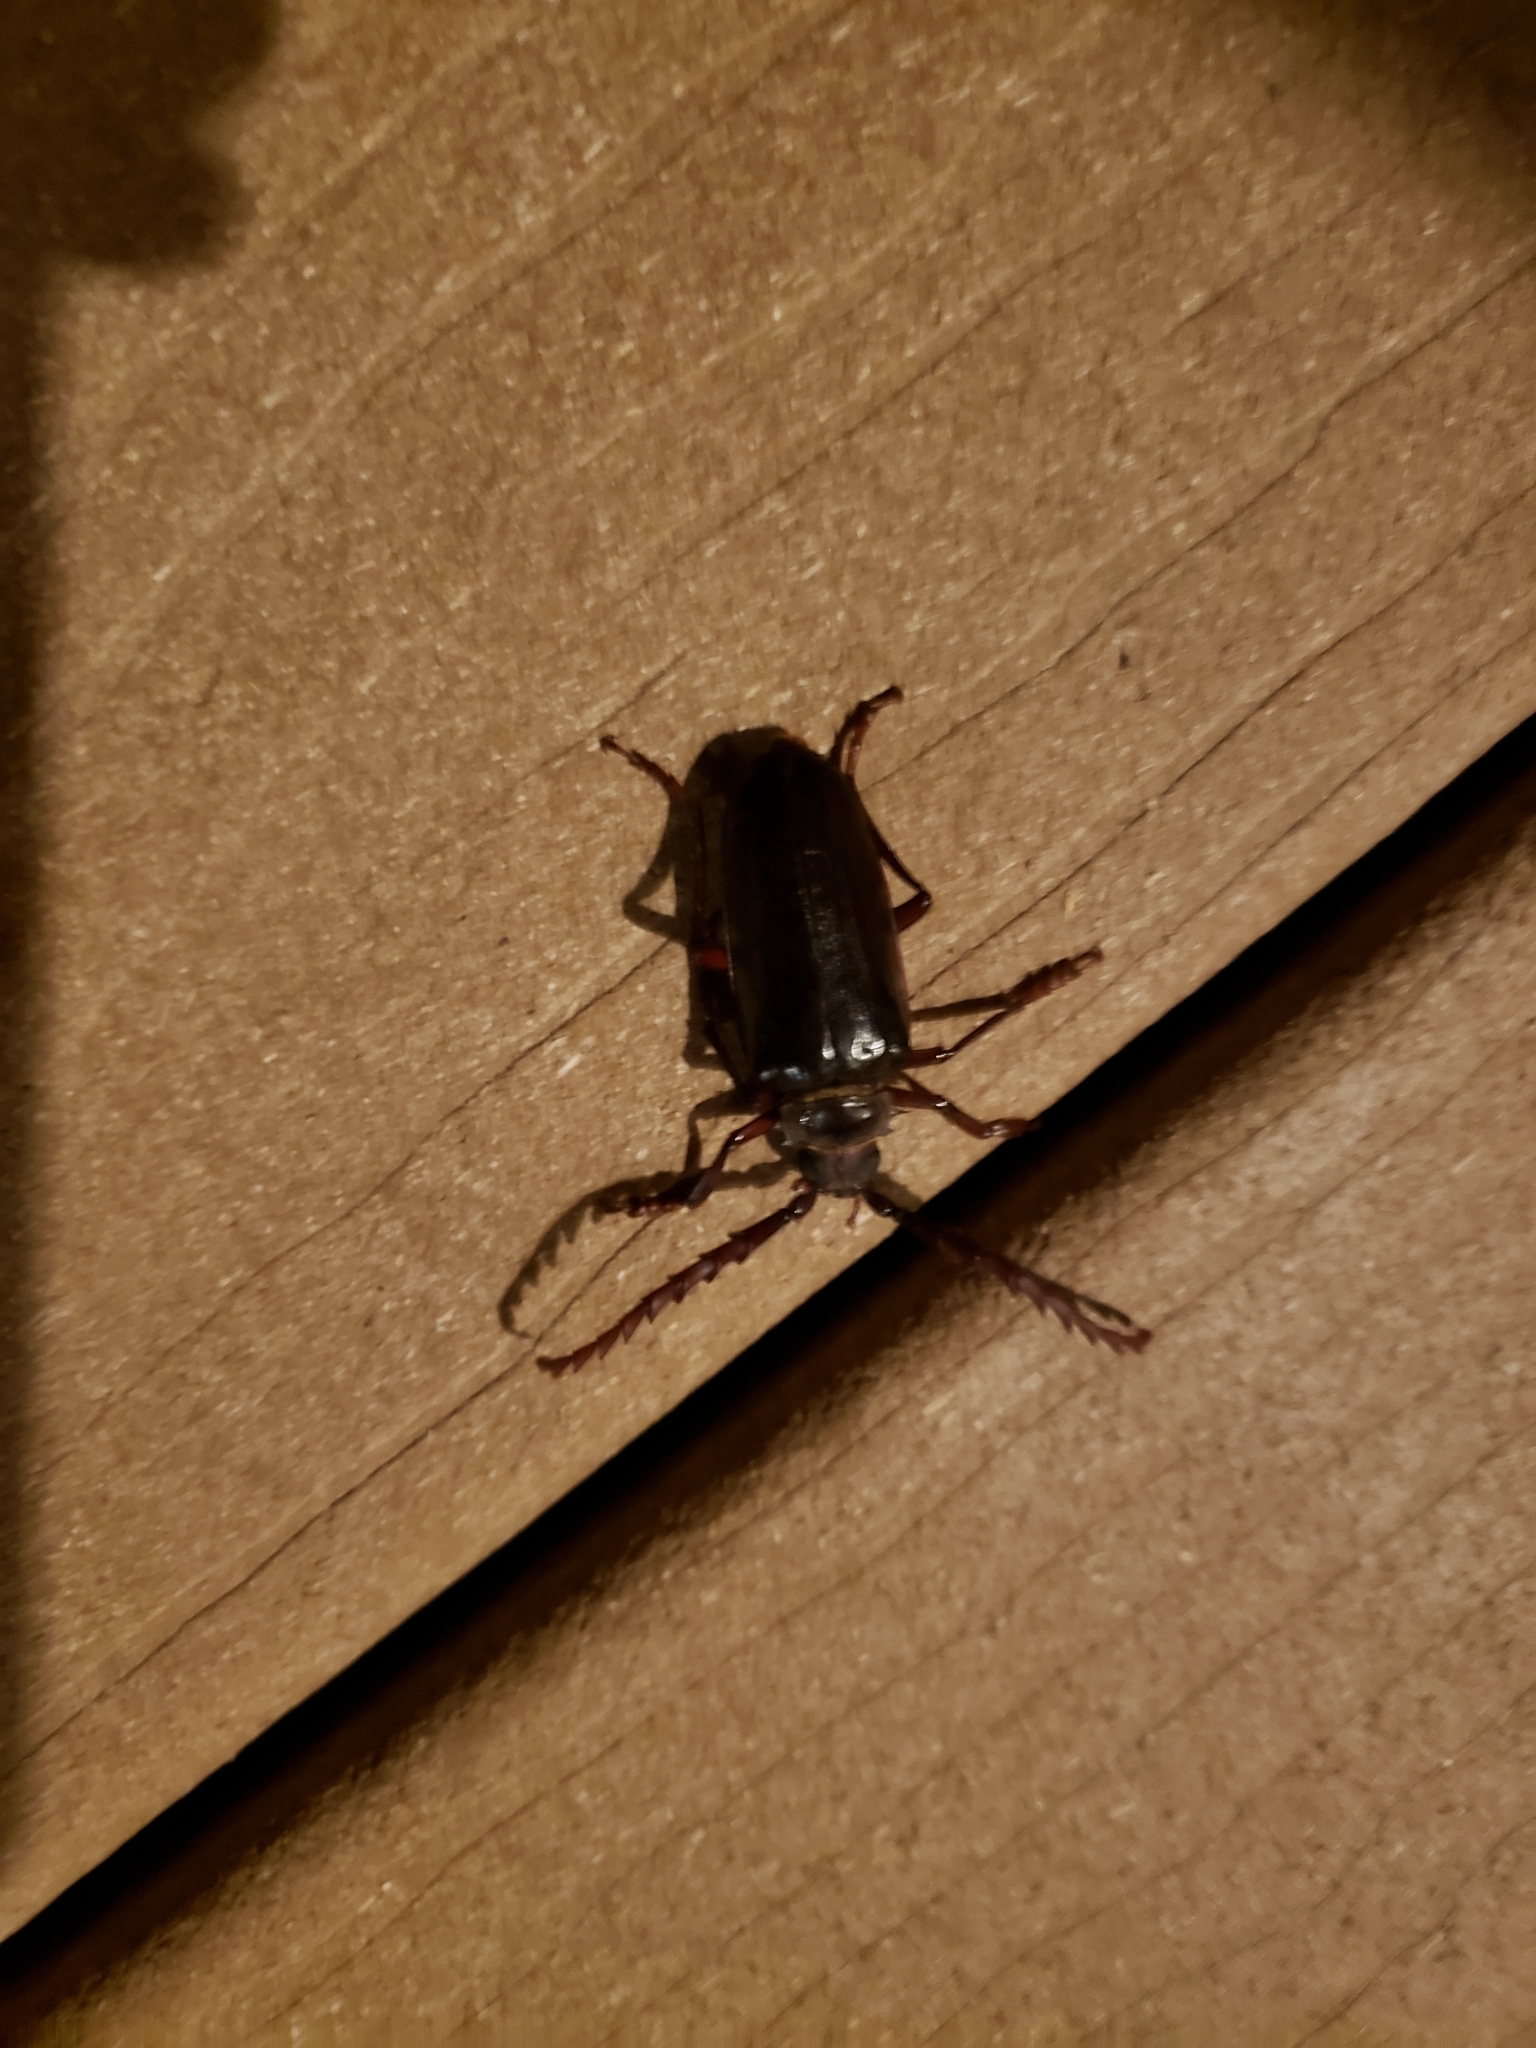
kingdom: Animalia
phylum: Arthropoda
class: Insecta
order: Coleoptera
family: Cerambycidae
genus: Prionus
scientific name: Prionus californicus
